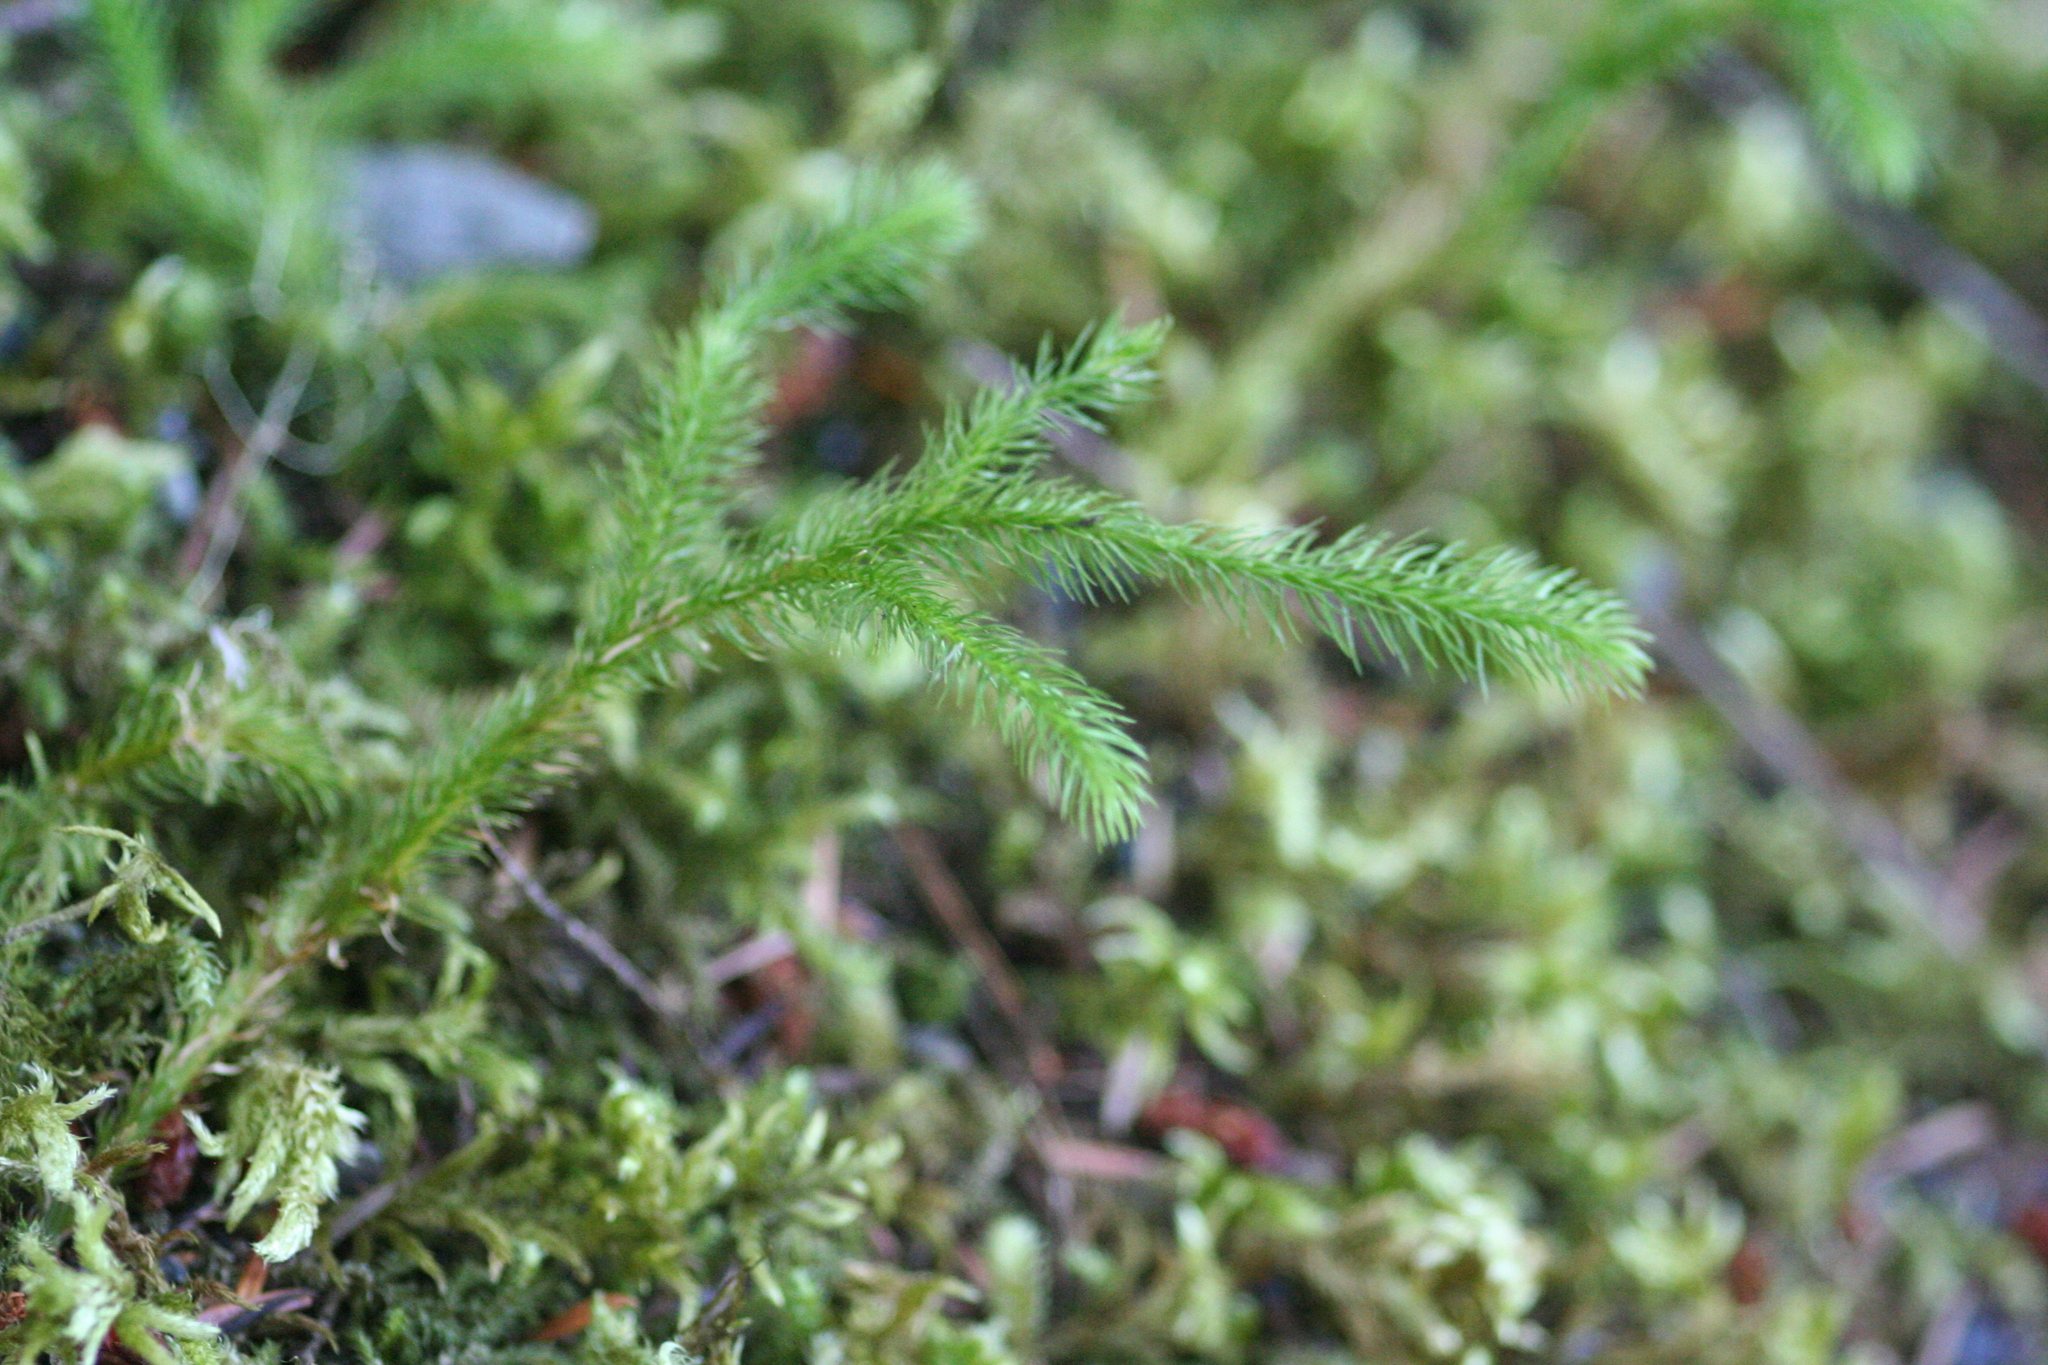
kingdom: Plantae
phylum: Tracheophyta
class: Lycopodiopsida
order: Lycopodiales
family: Lycopodiaceae
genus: Lycopodium
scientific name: Lycopodium clavatum
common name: Stag's-horn clubmoss
